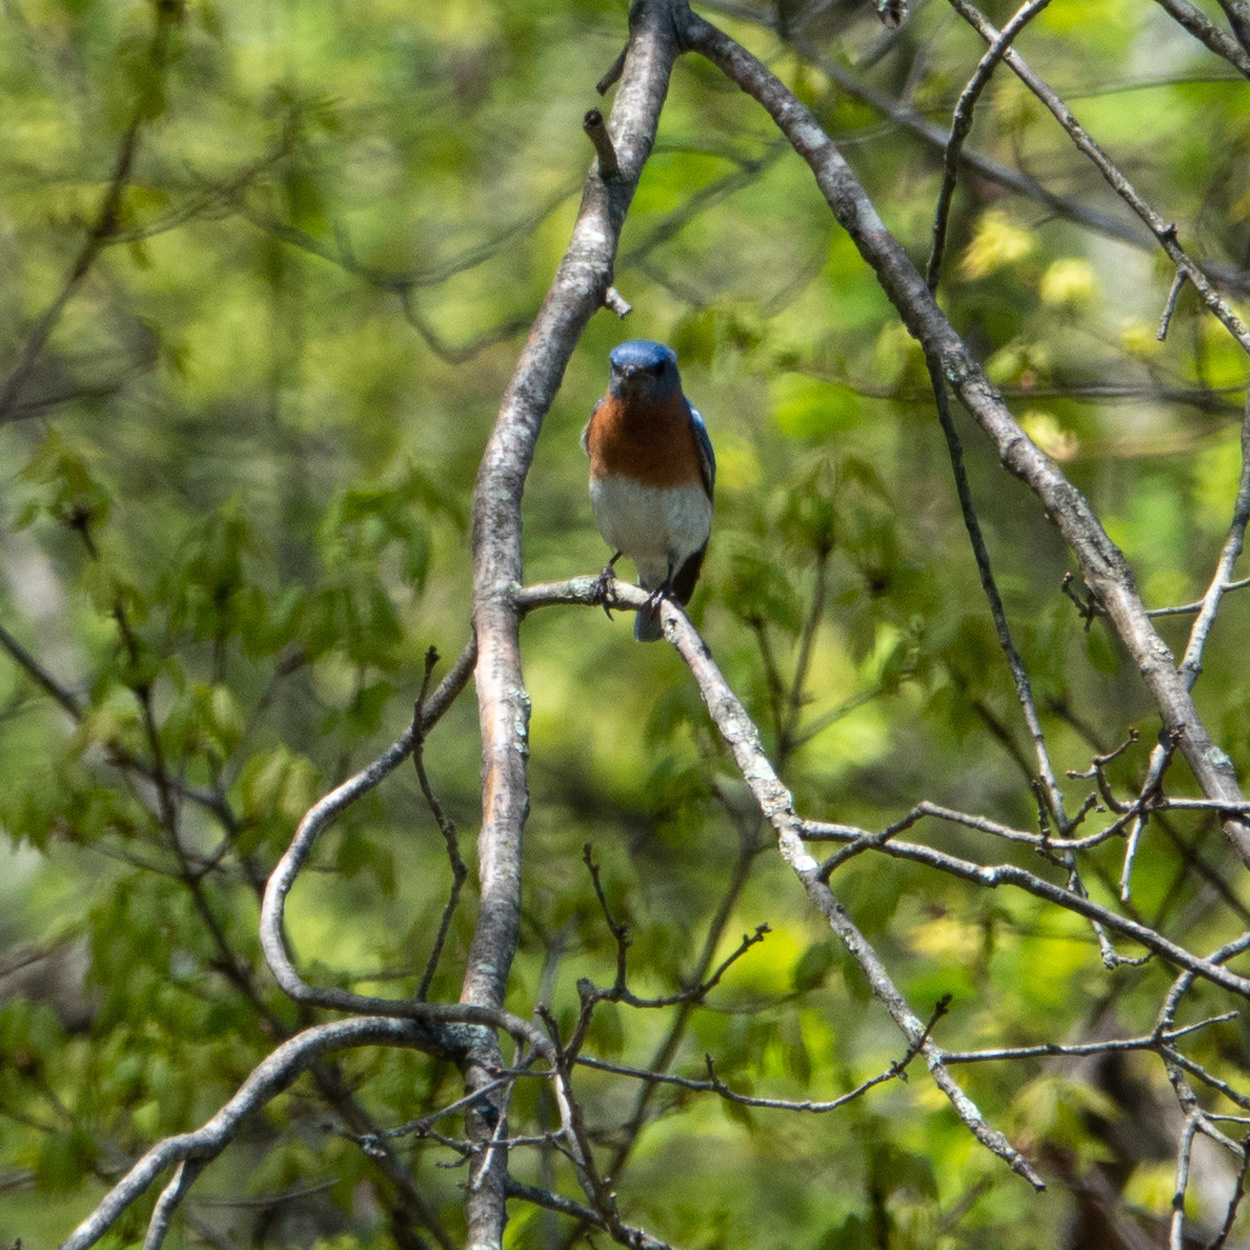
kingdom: Animalia
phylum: Chordata
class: Aves
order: Passeriformes
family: Turdidae
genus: Sialia
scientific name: Sialia sialis
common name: Eastern bluebird
